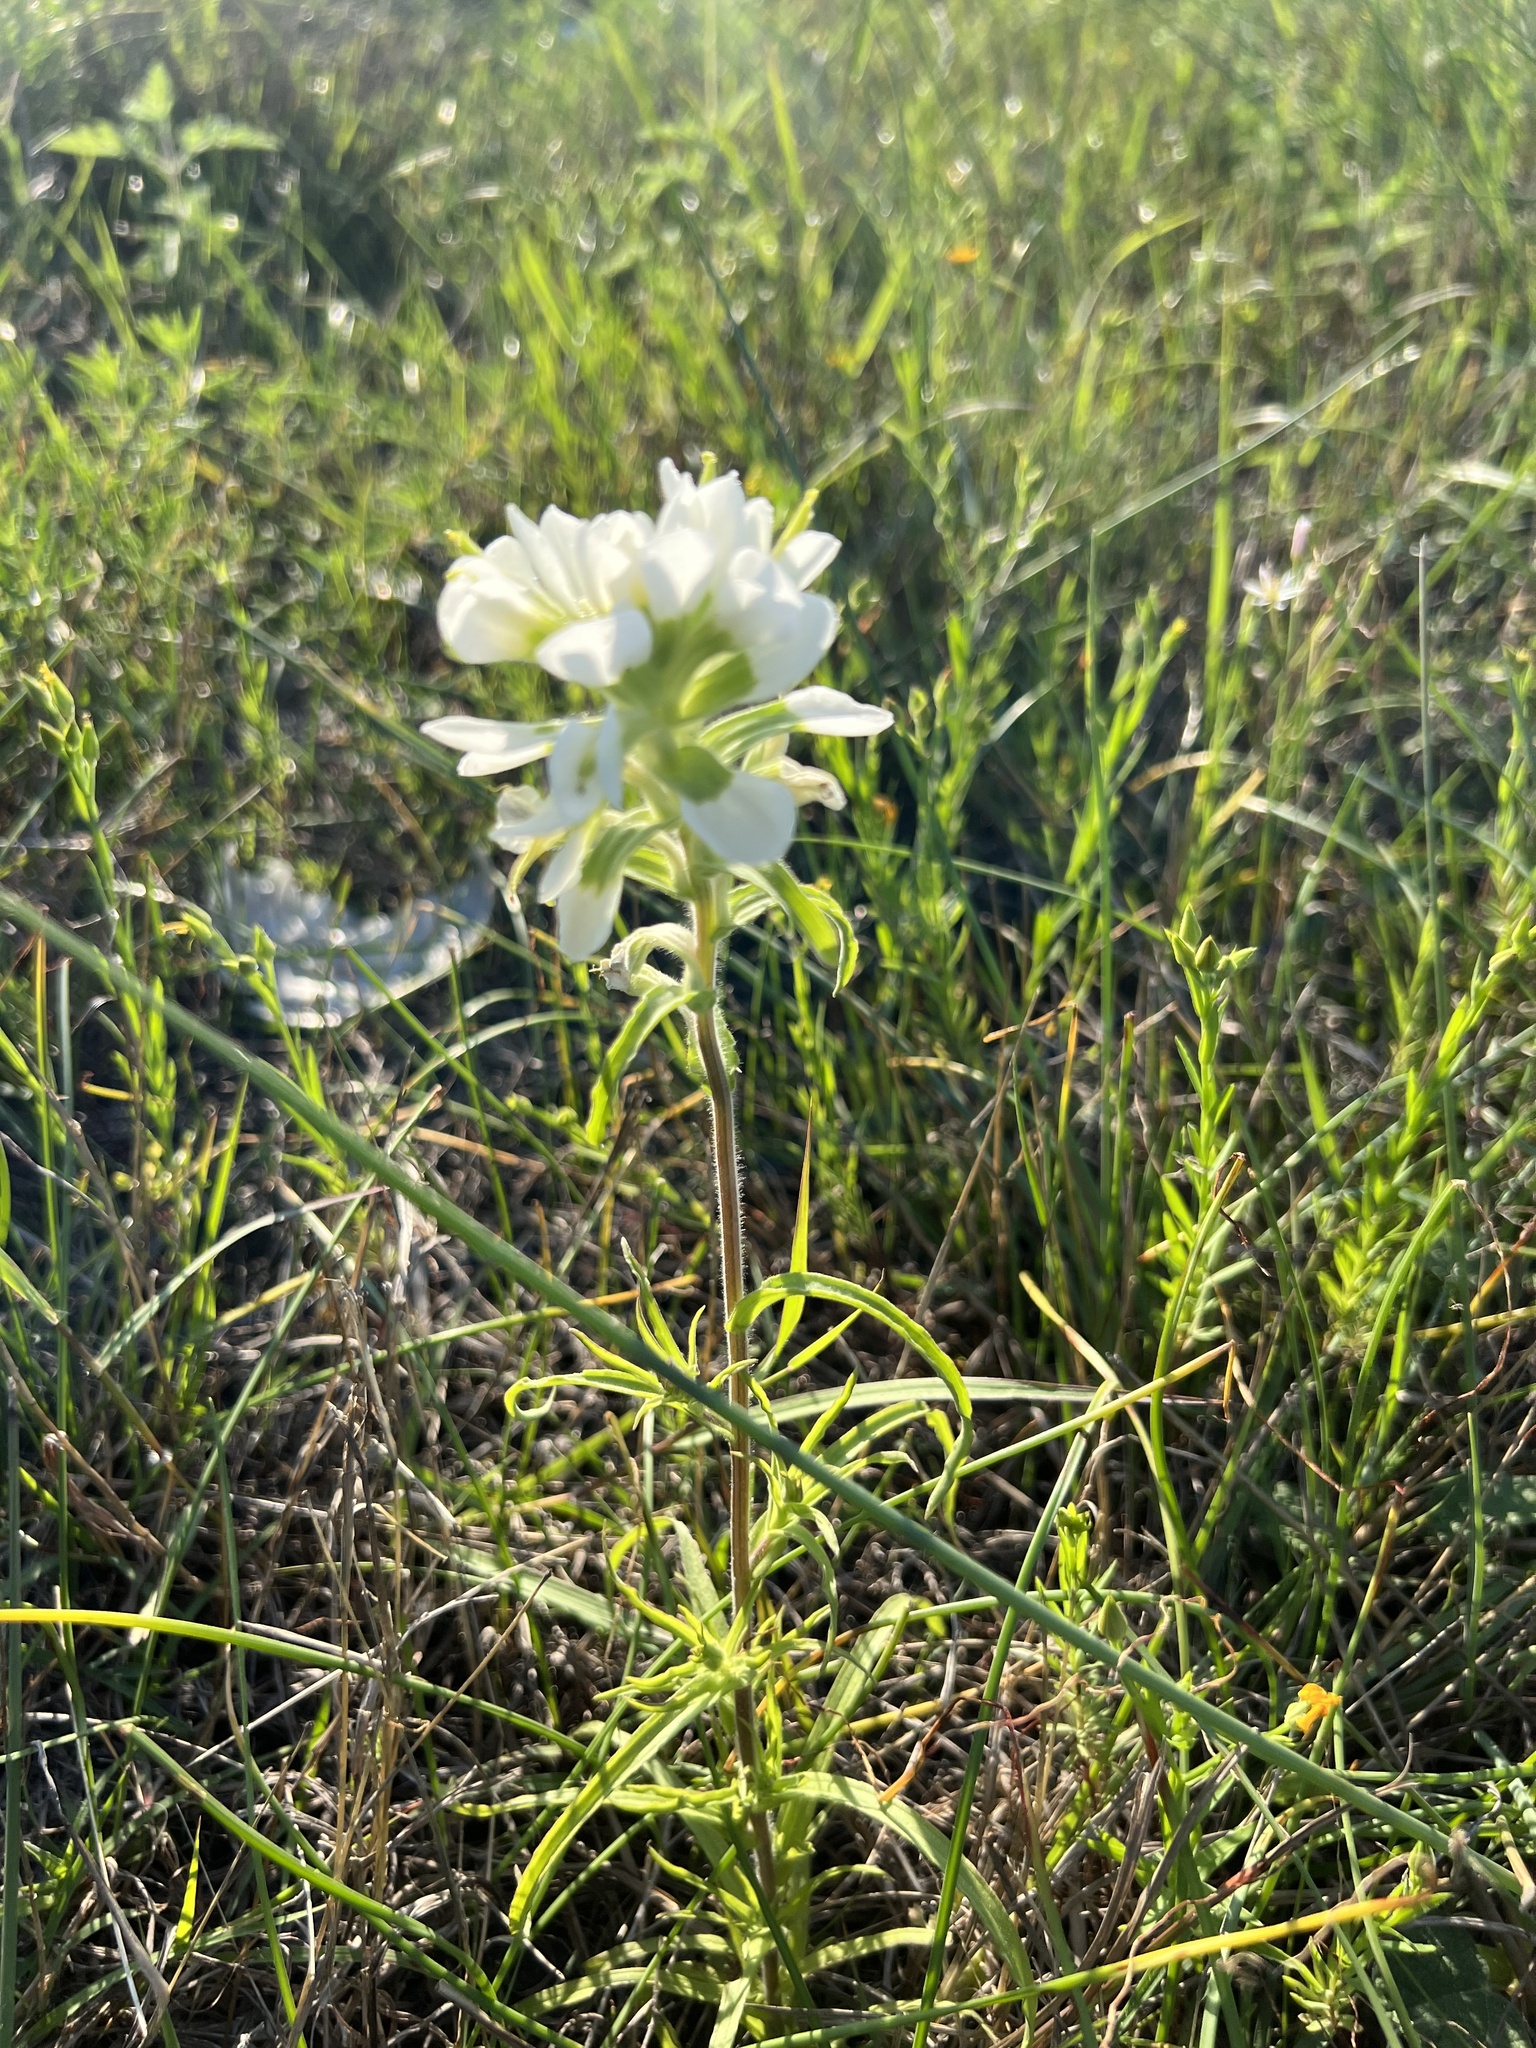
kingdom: Plantae
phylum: Tracheophyta
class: Magnoliopsida
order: Lamiales
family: Orobanchaceae
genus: Castilleja
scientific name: Castilleja halophila
